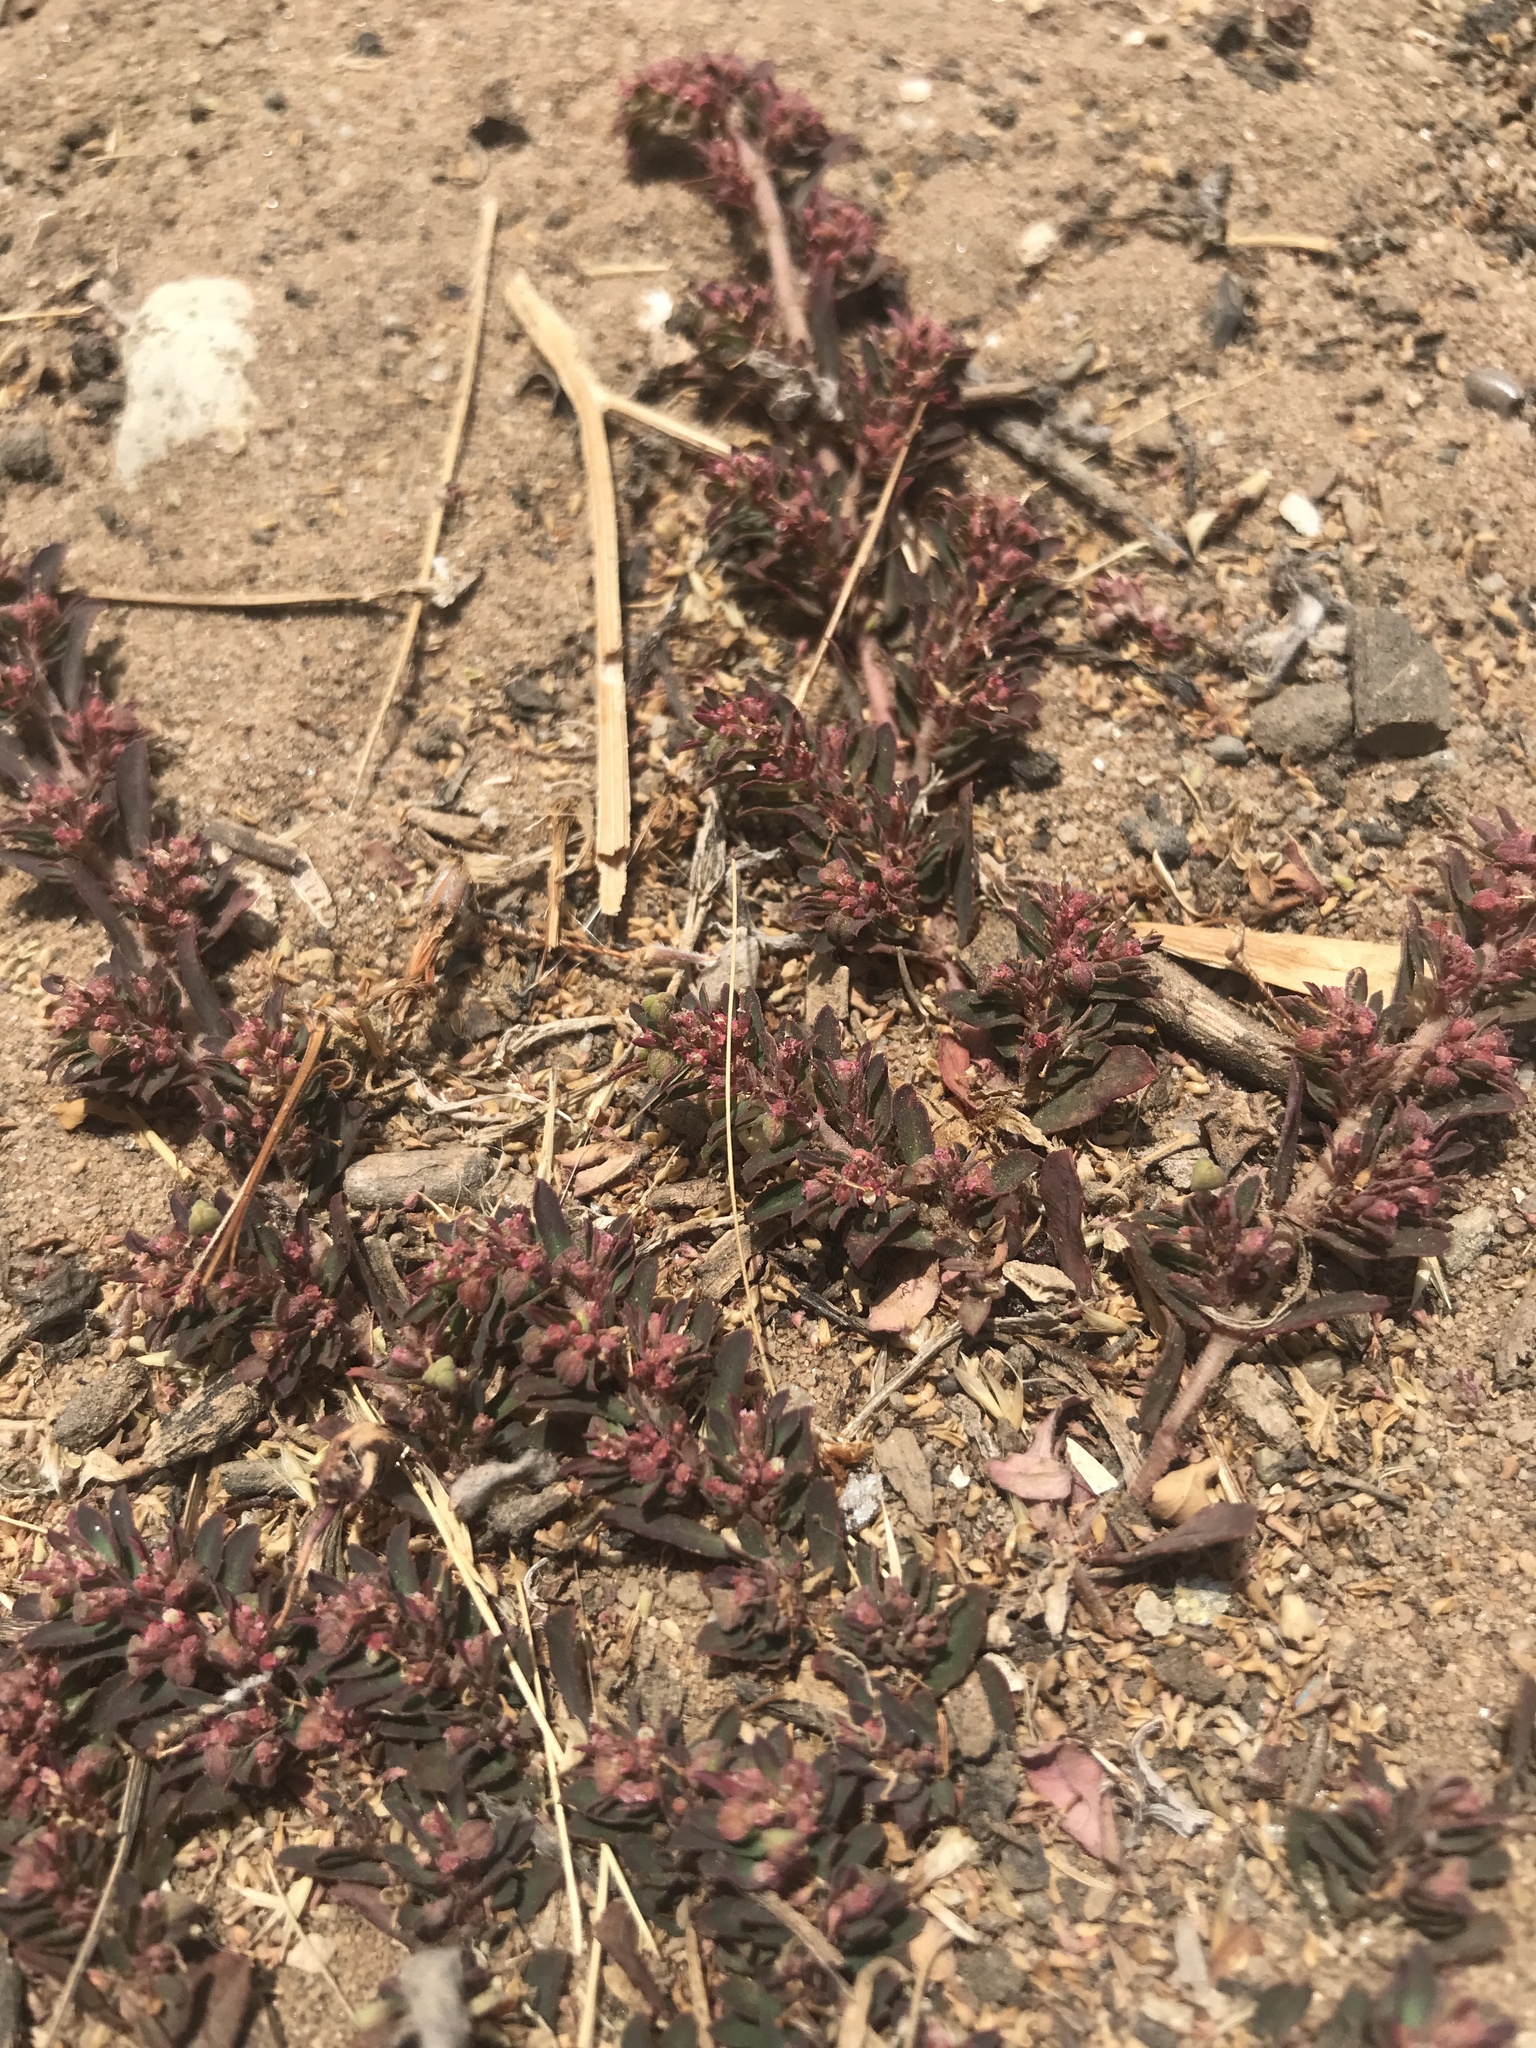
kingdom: Plantae
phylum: Tracheophyta
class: Magnoliopsida
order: Malpighiales
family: Euphorbiaceae
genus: Euphorbia
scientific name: Euphorbia maculata
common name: Spotted spurge
